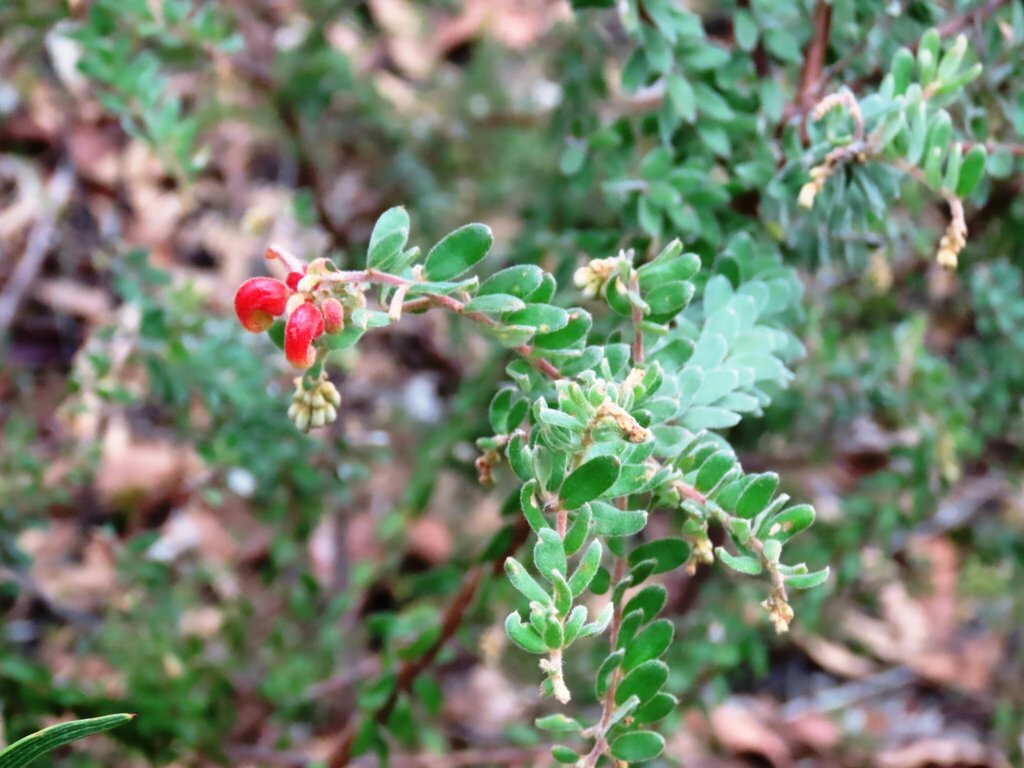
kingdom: Plantae
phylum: Tracheophyta
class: Magnoliopsida
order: Proteales
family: Proteaceae
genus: Grevillea
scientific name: Grevillea alpina
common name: Catclaws grevillea
